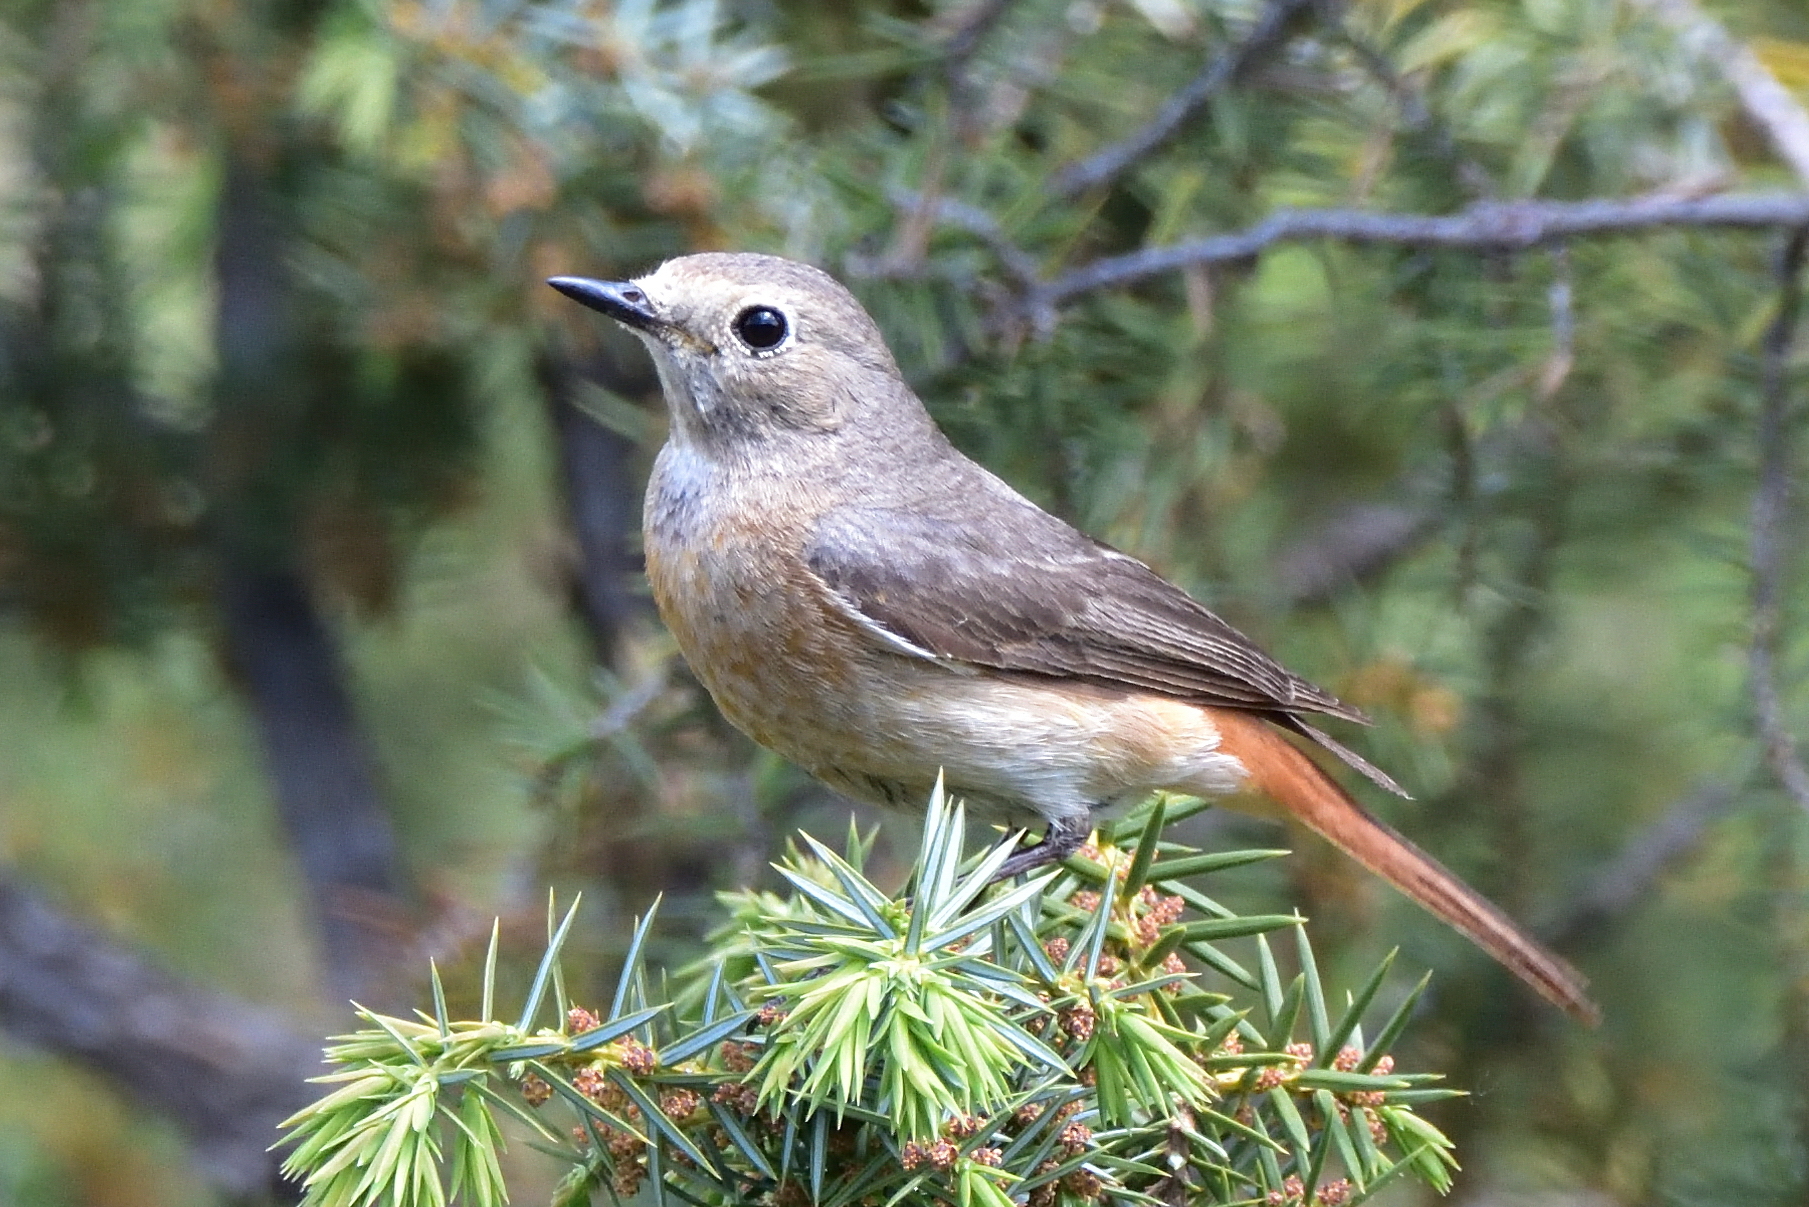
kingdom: Animalia
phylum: Chordata
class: Aves
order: Passeriformes
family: Muscicapidae
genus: Phoenicurus
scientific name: Phoenicurus phoenicurus
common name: Common redstart
